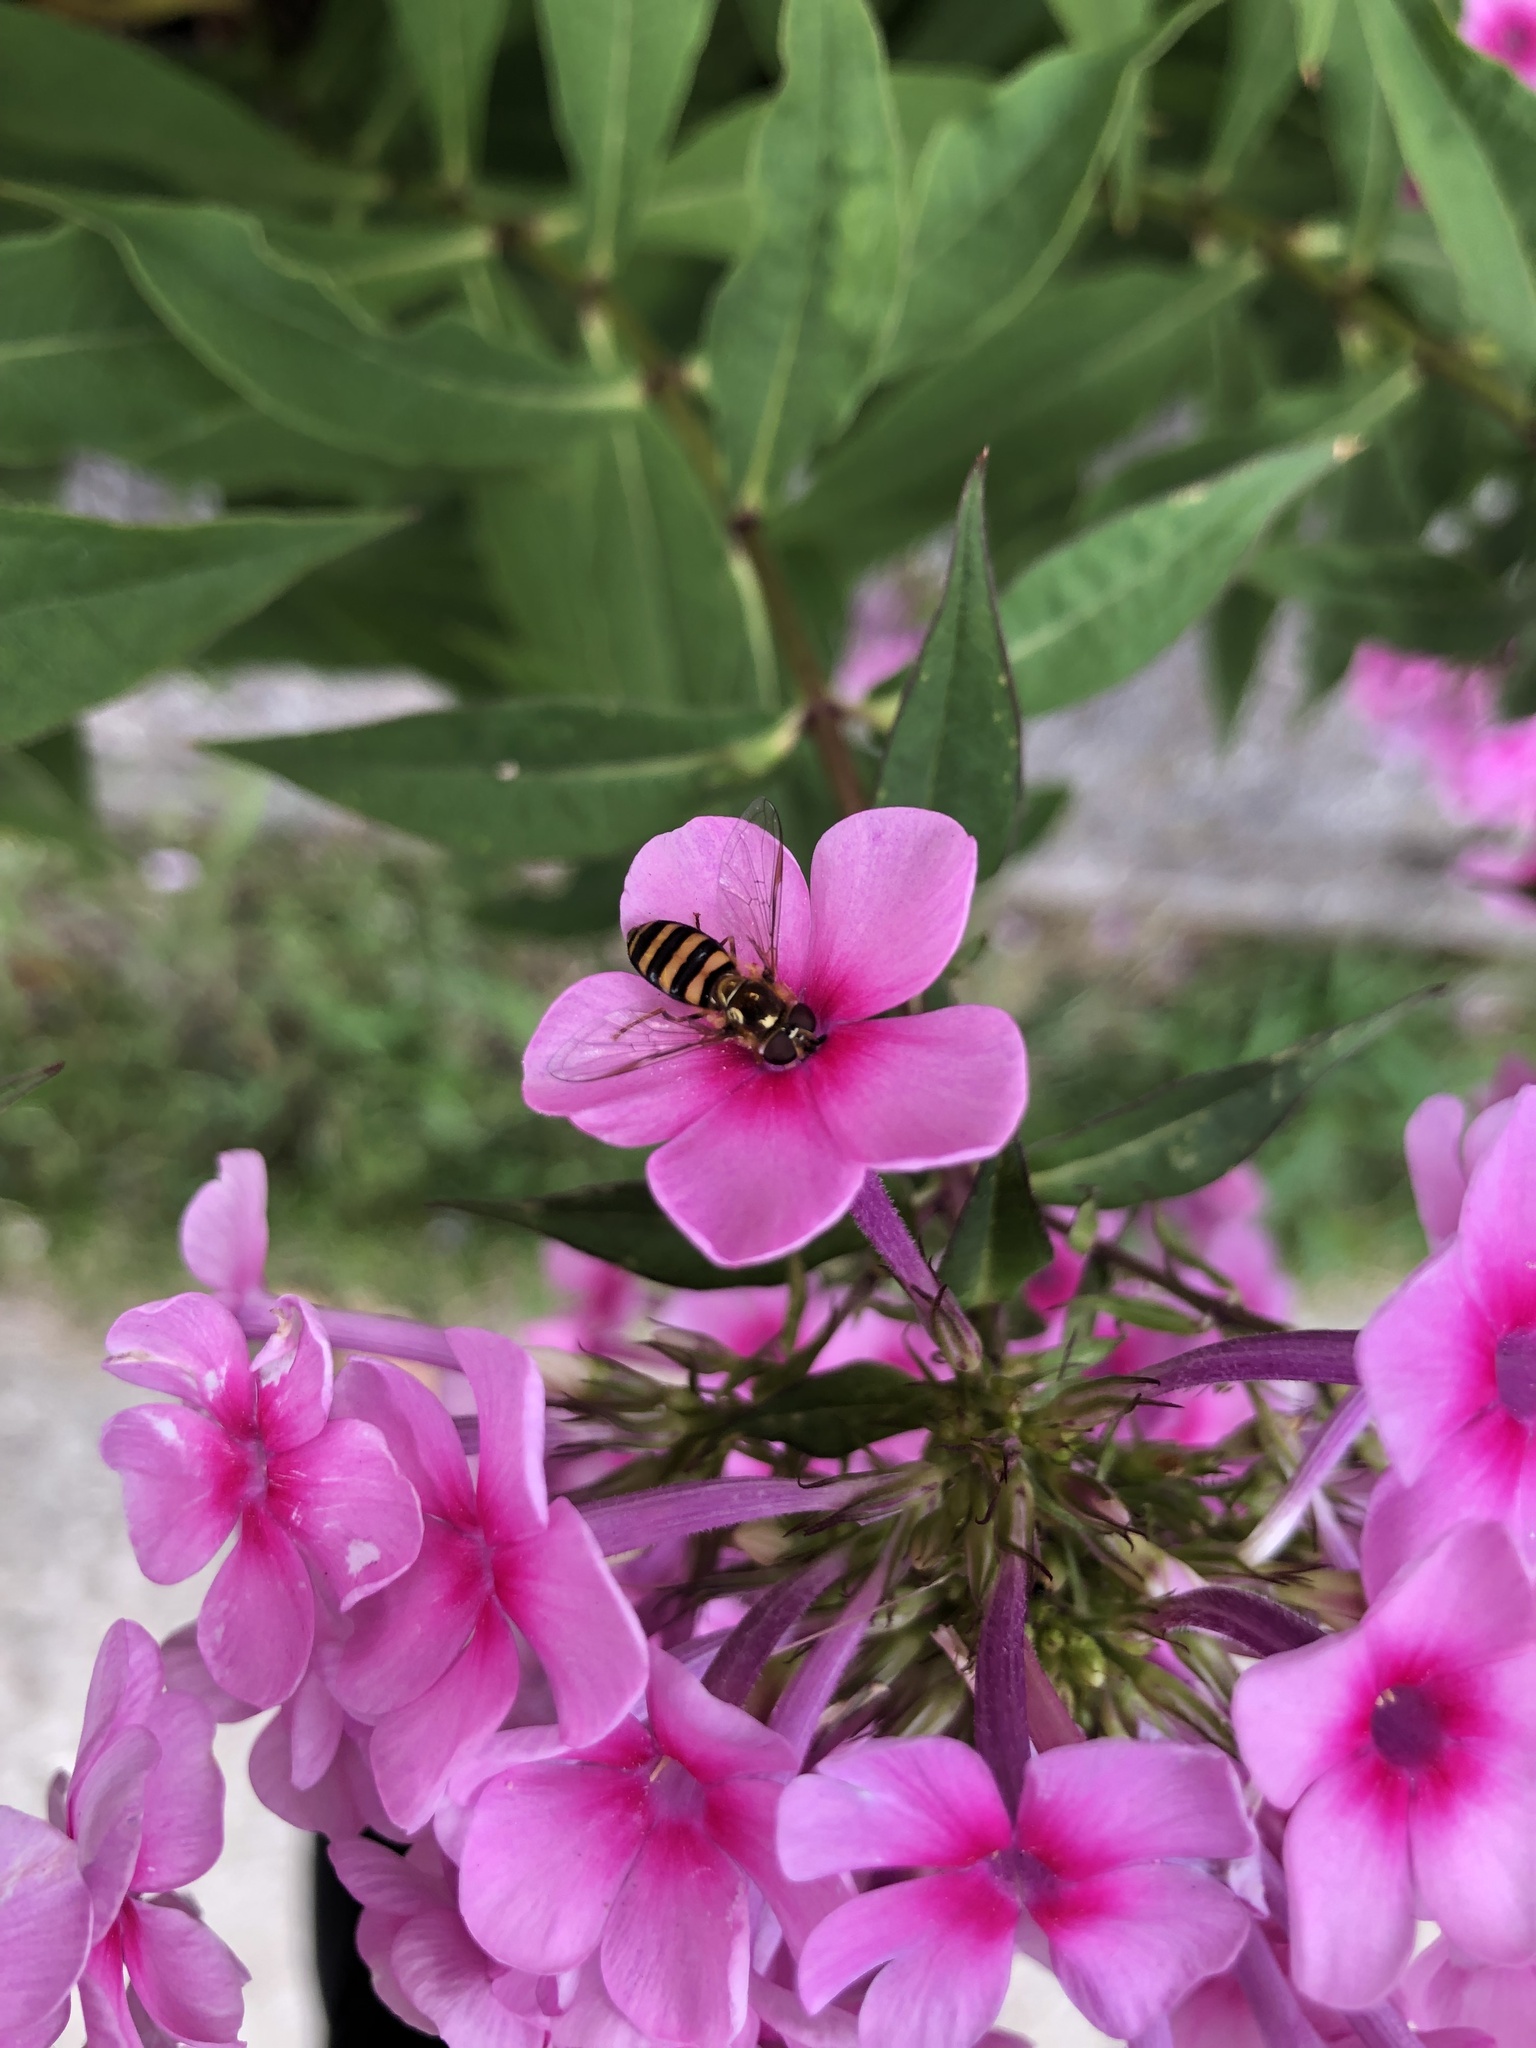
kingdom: Animalia
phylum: Arthropoda
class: Insecta
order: Diptera
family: Syrphidae
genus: Eupeodes
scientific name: Eupeodes
